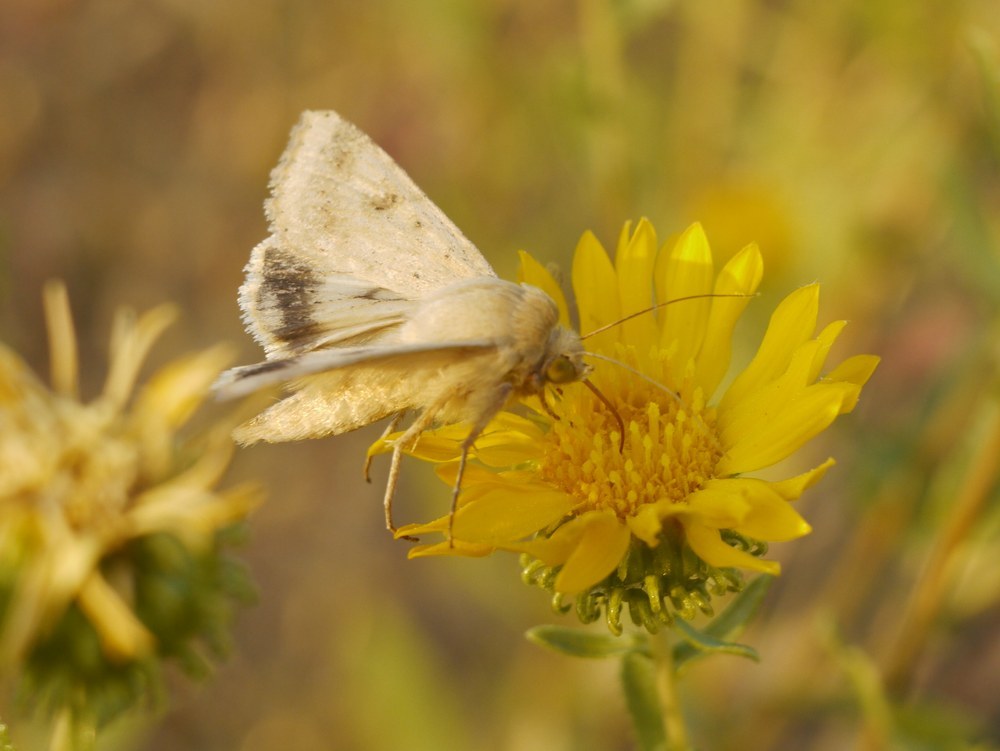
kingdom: Animalia
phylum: Arthropoda
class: Insecta
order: Lepidoptera
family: Noctuidae
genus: Helicoverpa
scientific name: Helicoverpa armigera
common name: Cotton bollworm
